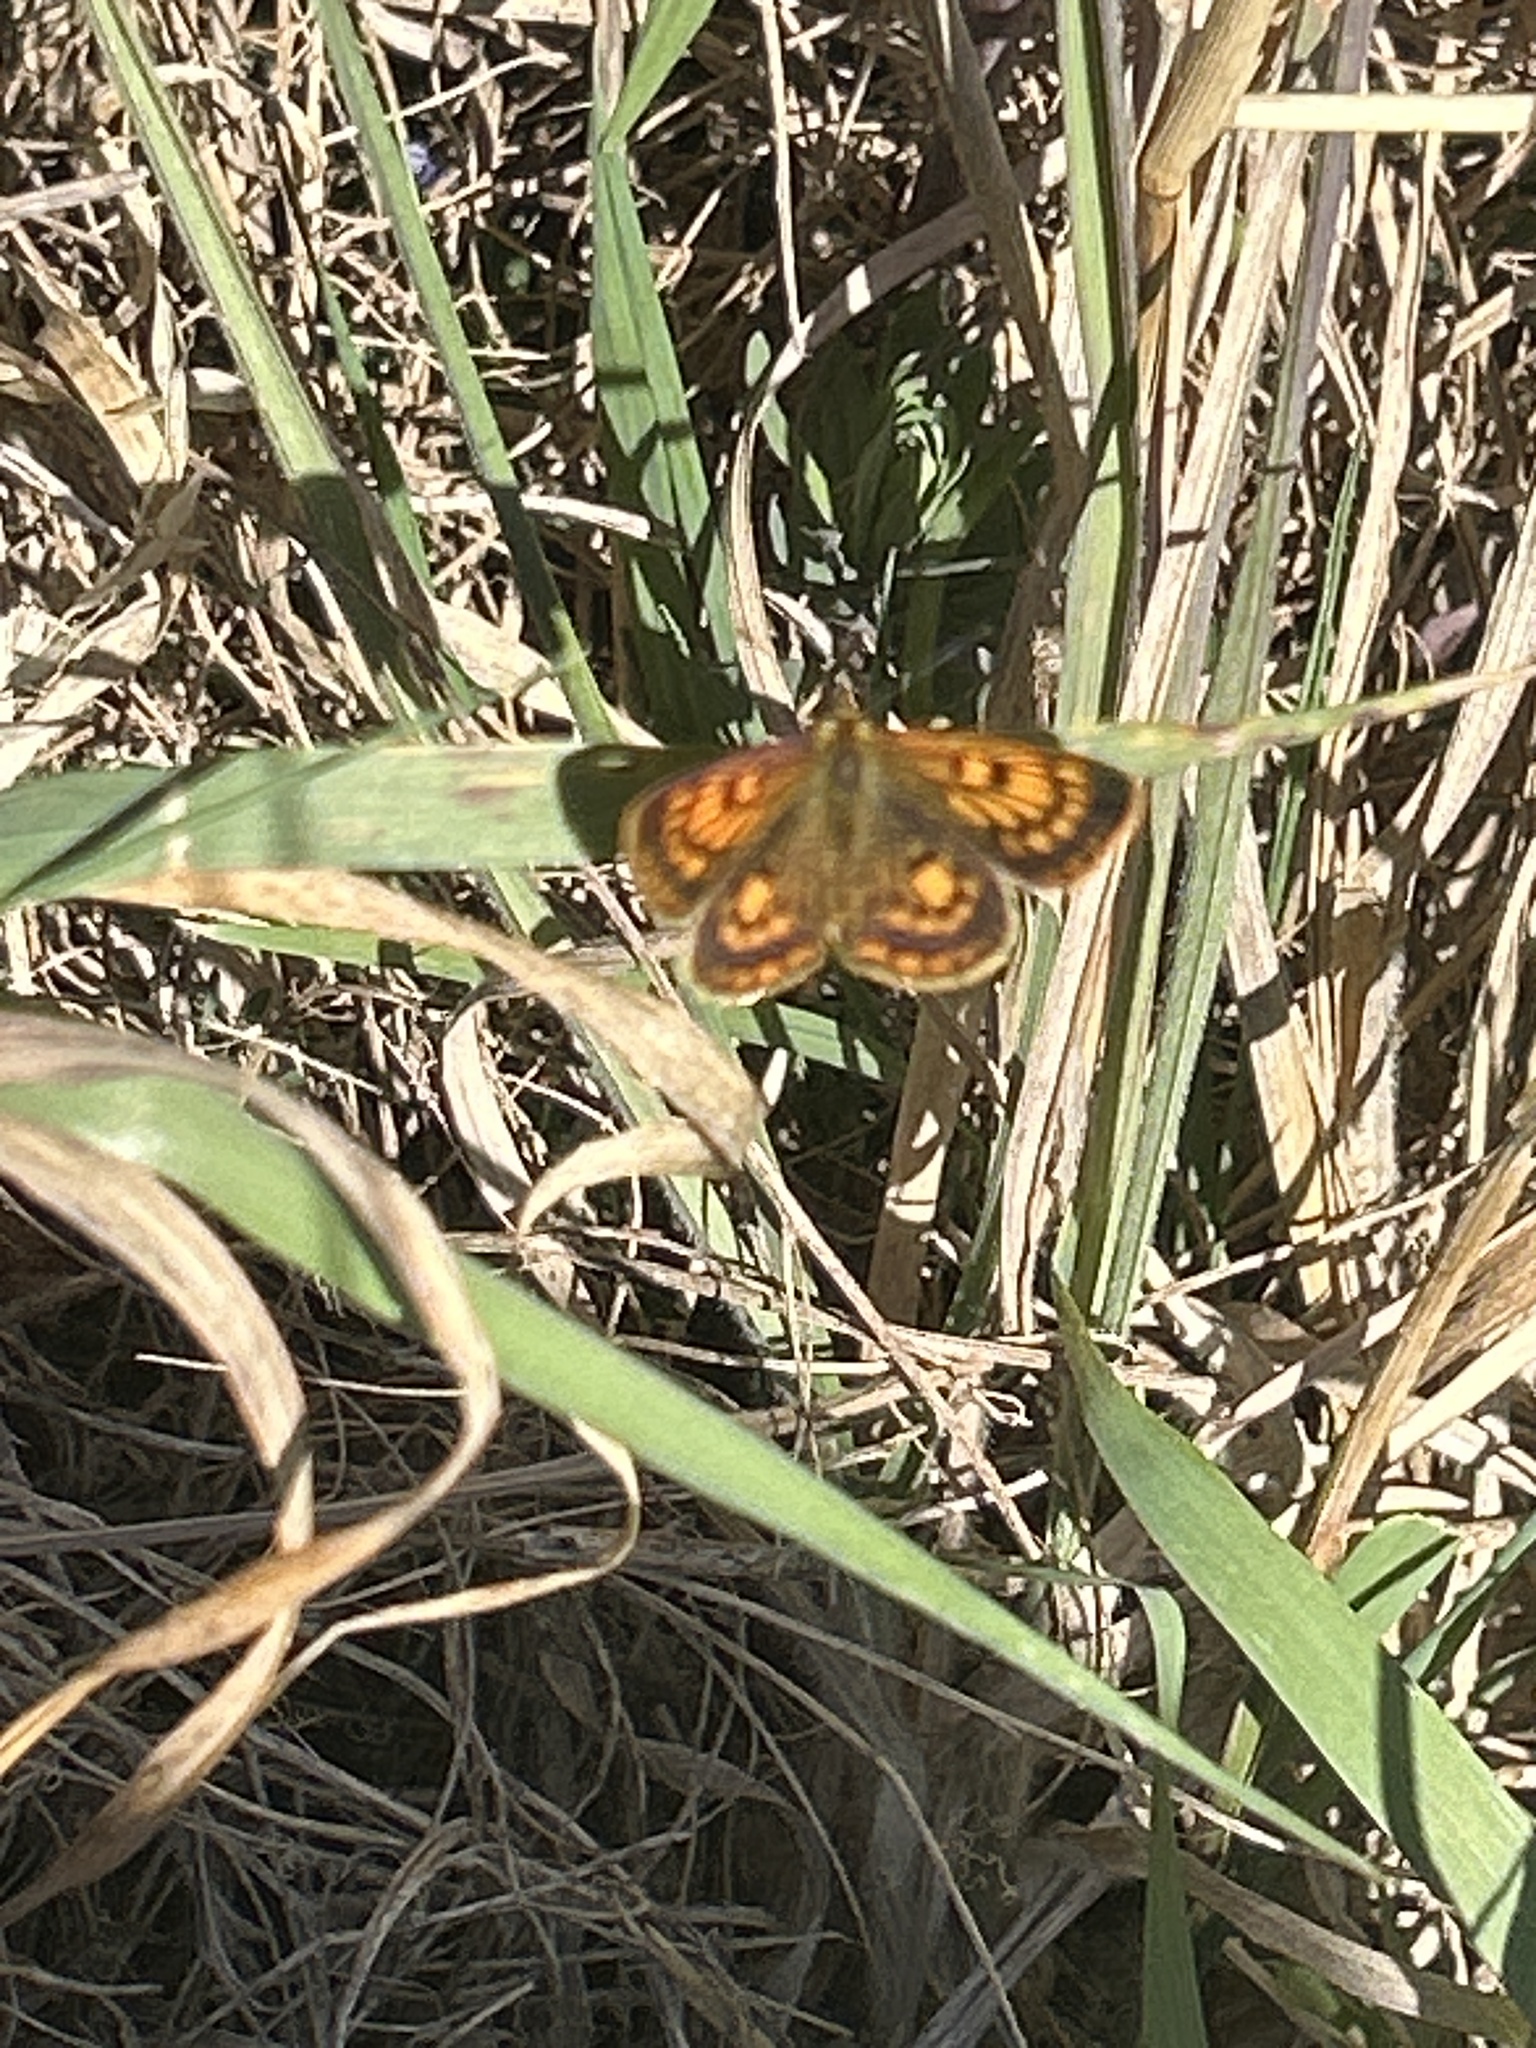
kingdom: Animalia
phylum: Arthropoda
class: Insecta
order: Lepidoptera
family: Lycaenidae
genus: Lycaena
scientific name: Lycaena
